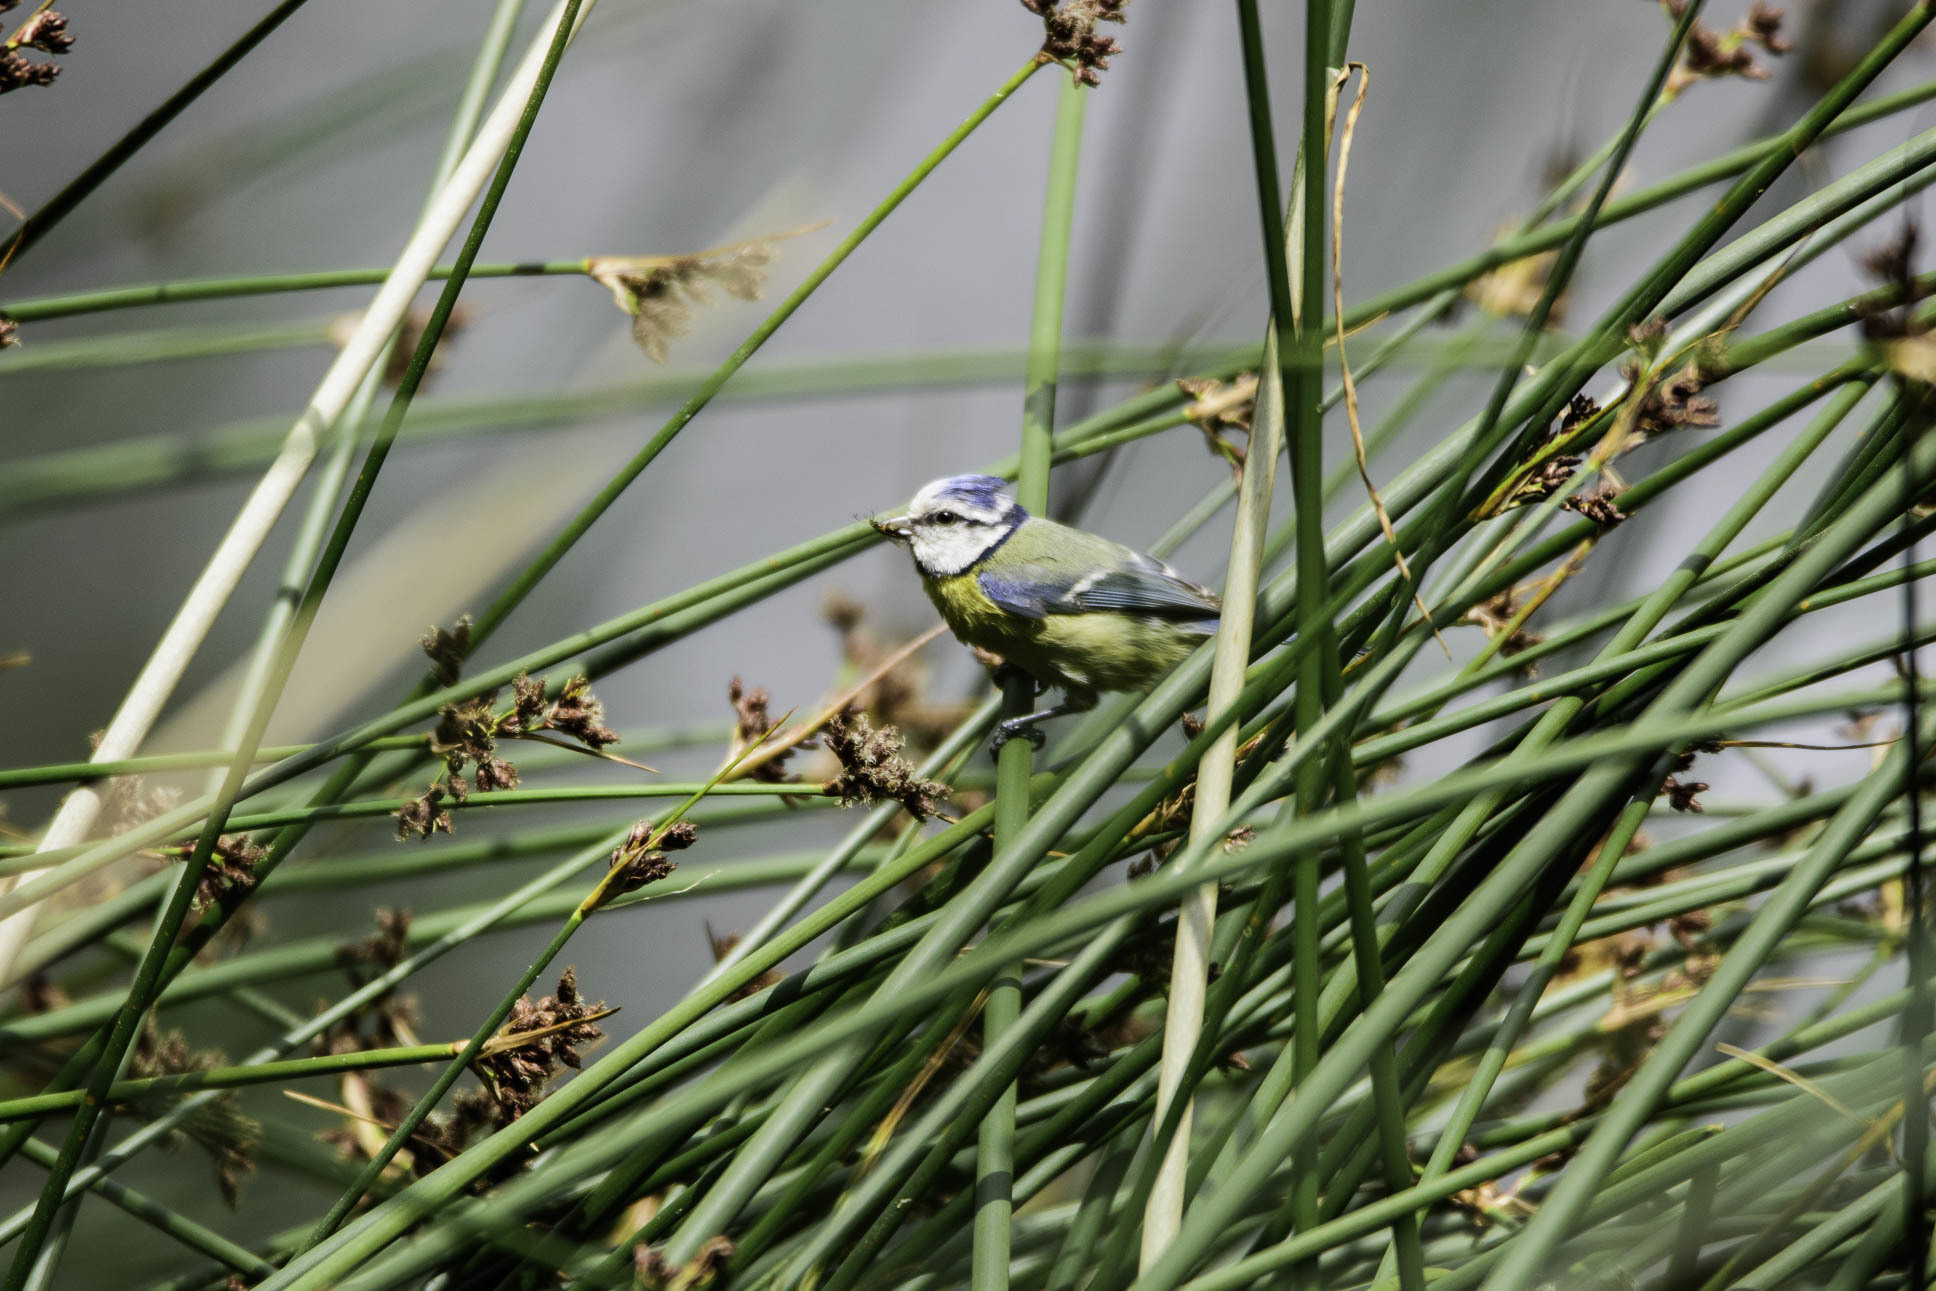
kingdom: Animalia
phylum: Chordata
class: Aves
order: Passeriformes
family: Paridae
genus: Cyanistes
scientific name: Cyanistes caeruleus
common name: Eurasian blue tit
